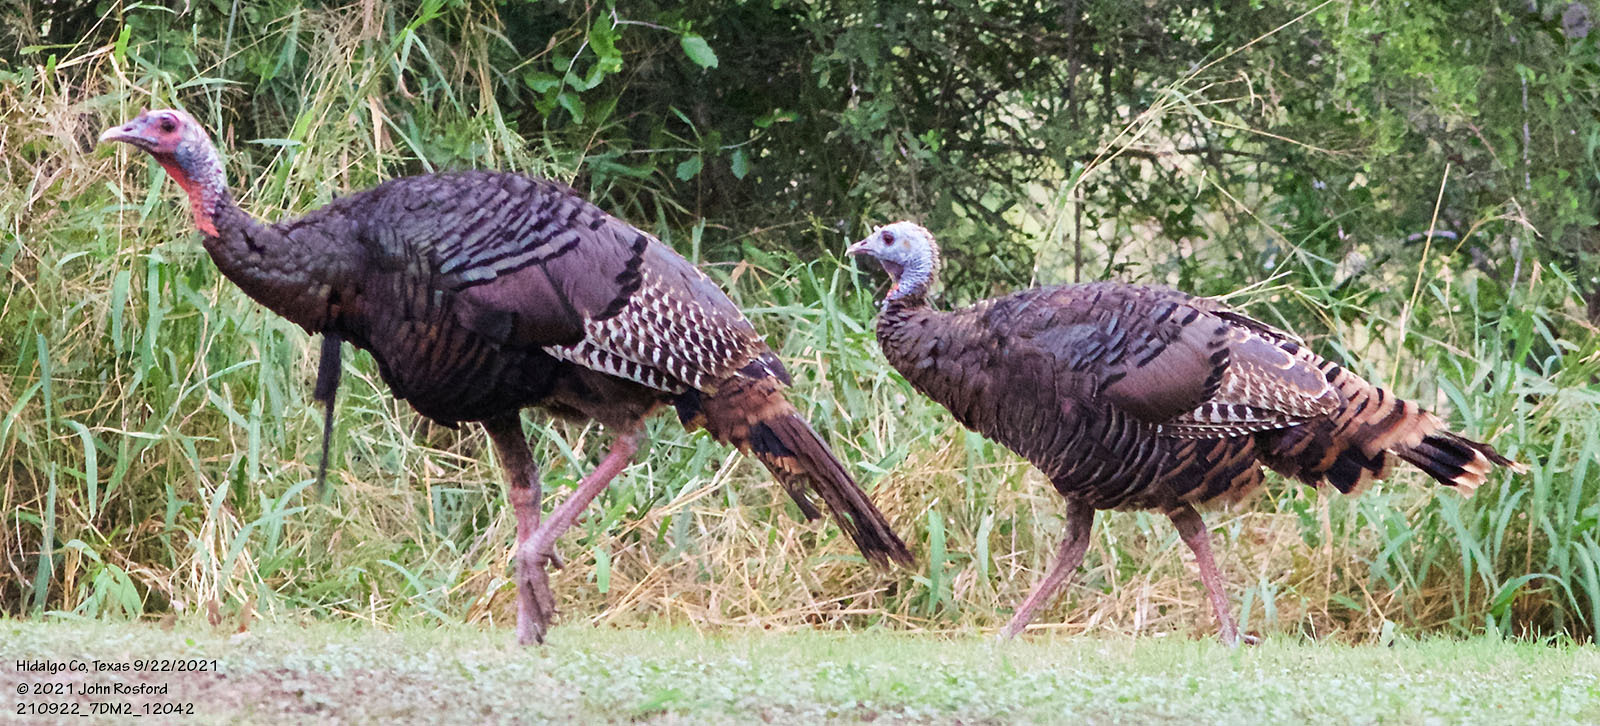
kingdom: Animalia
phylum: Chordata
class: Aves
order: Galliformes
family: Phasianidae
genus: Meleagris
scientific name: Meleagris gallopavo
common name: Wild turkey
